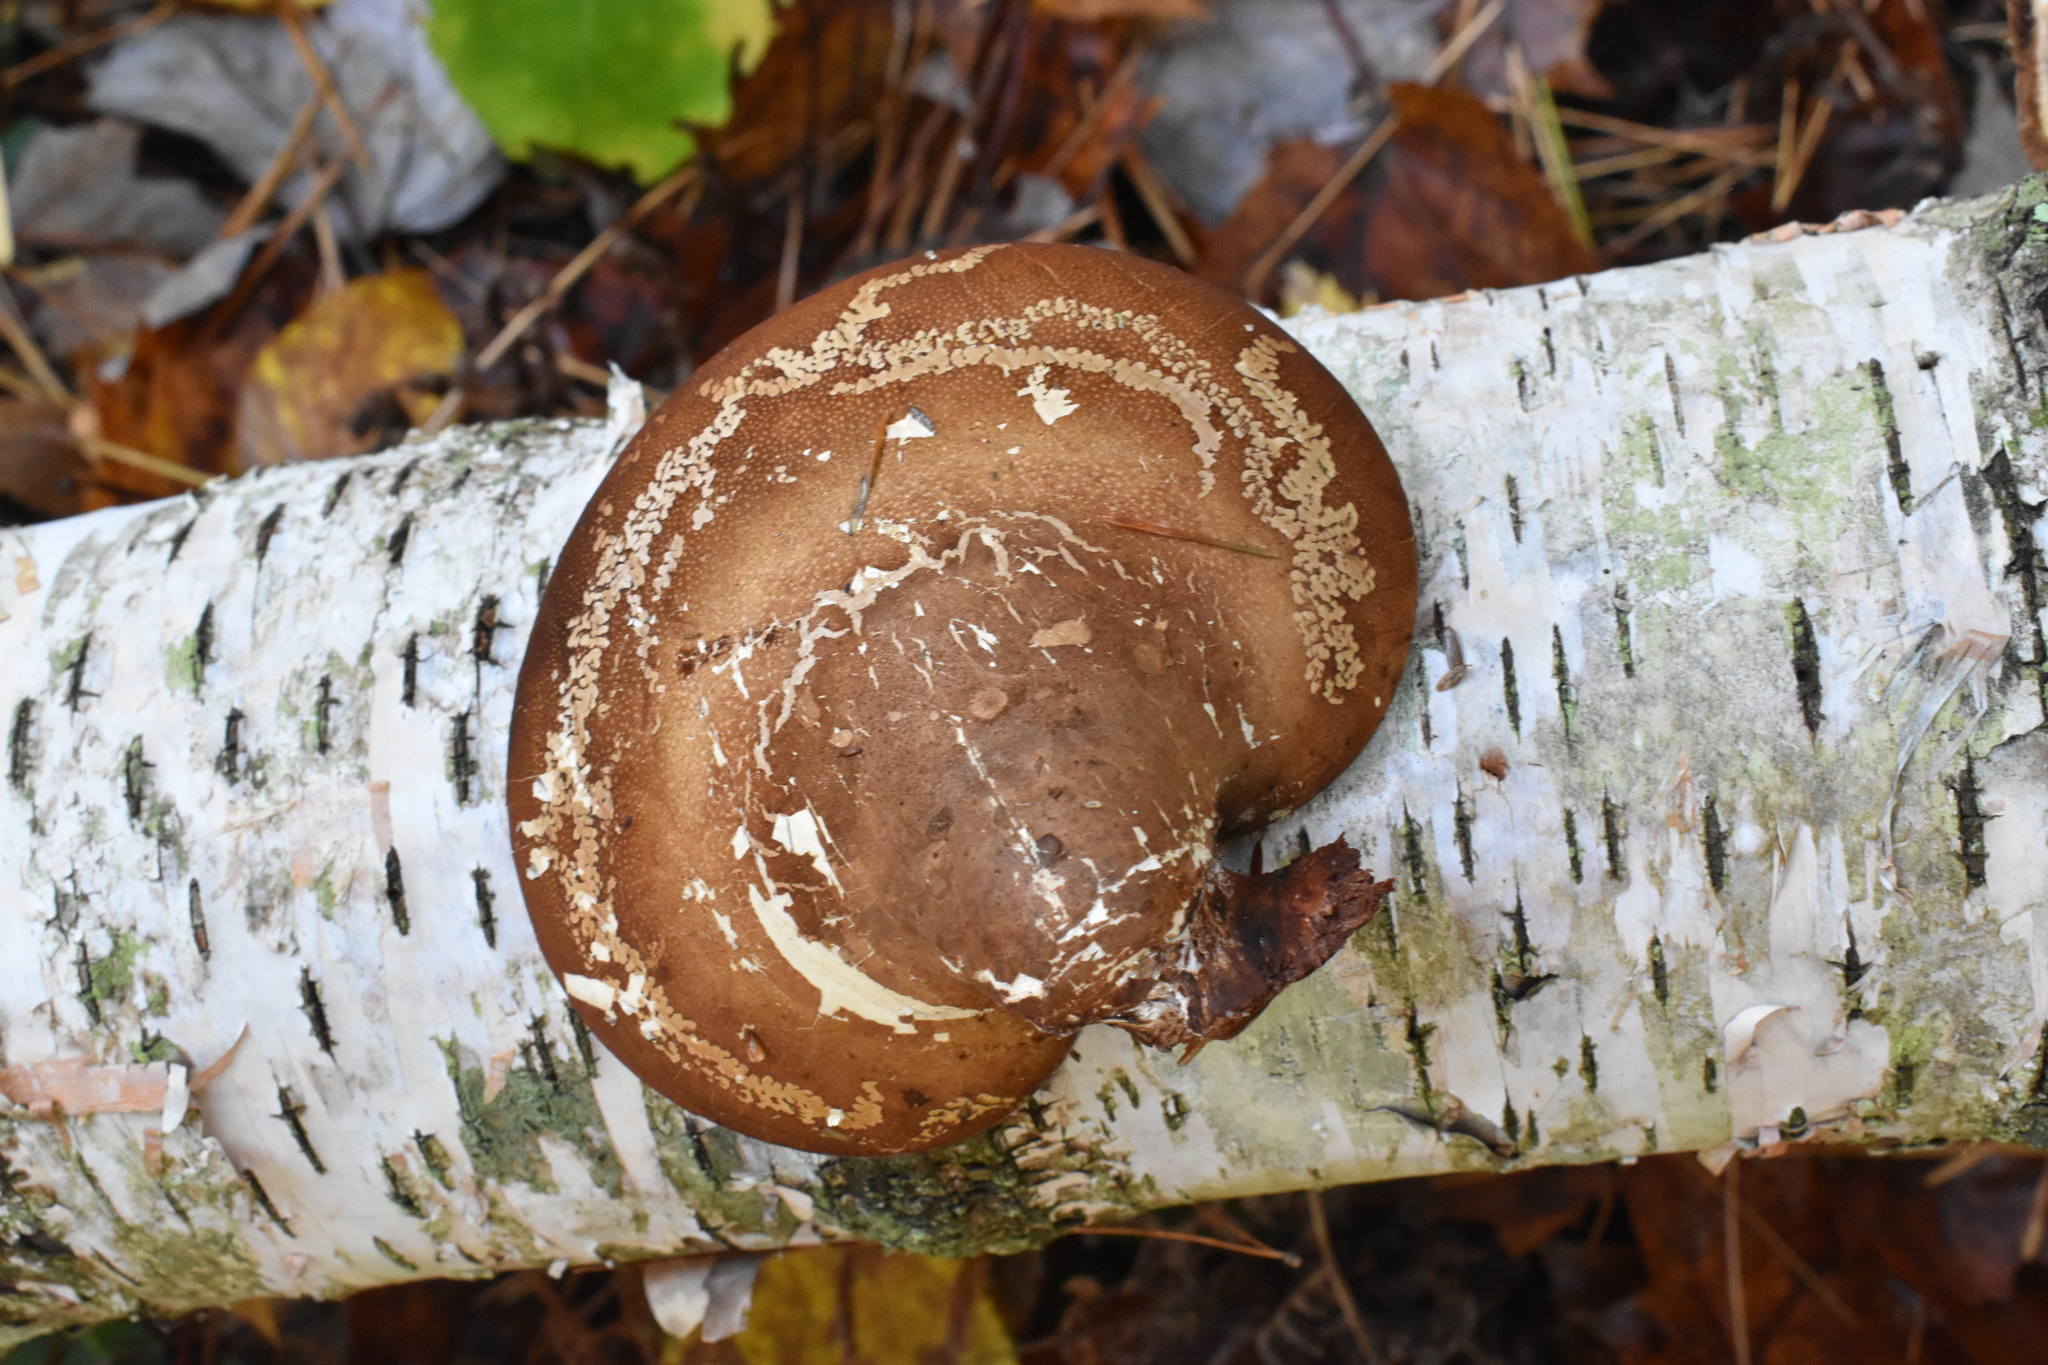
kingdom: Fungi
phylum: Basidiomycota
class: Agaricomycetes
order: Polyporales
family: Fomitopsidaceae
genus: Fomitopsis
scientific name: Fomitopsis betulina
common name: Birch polypore
